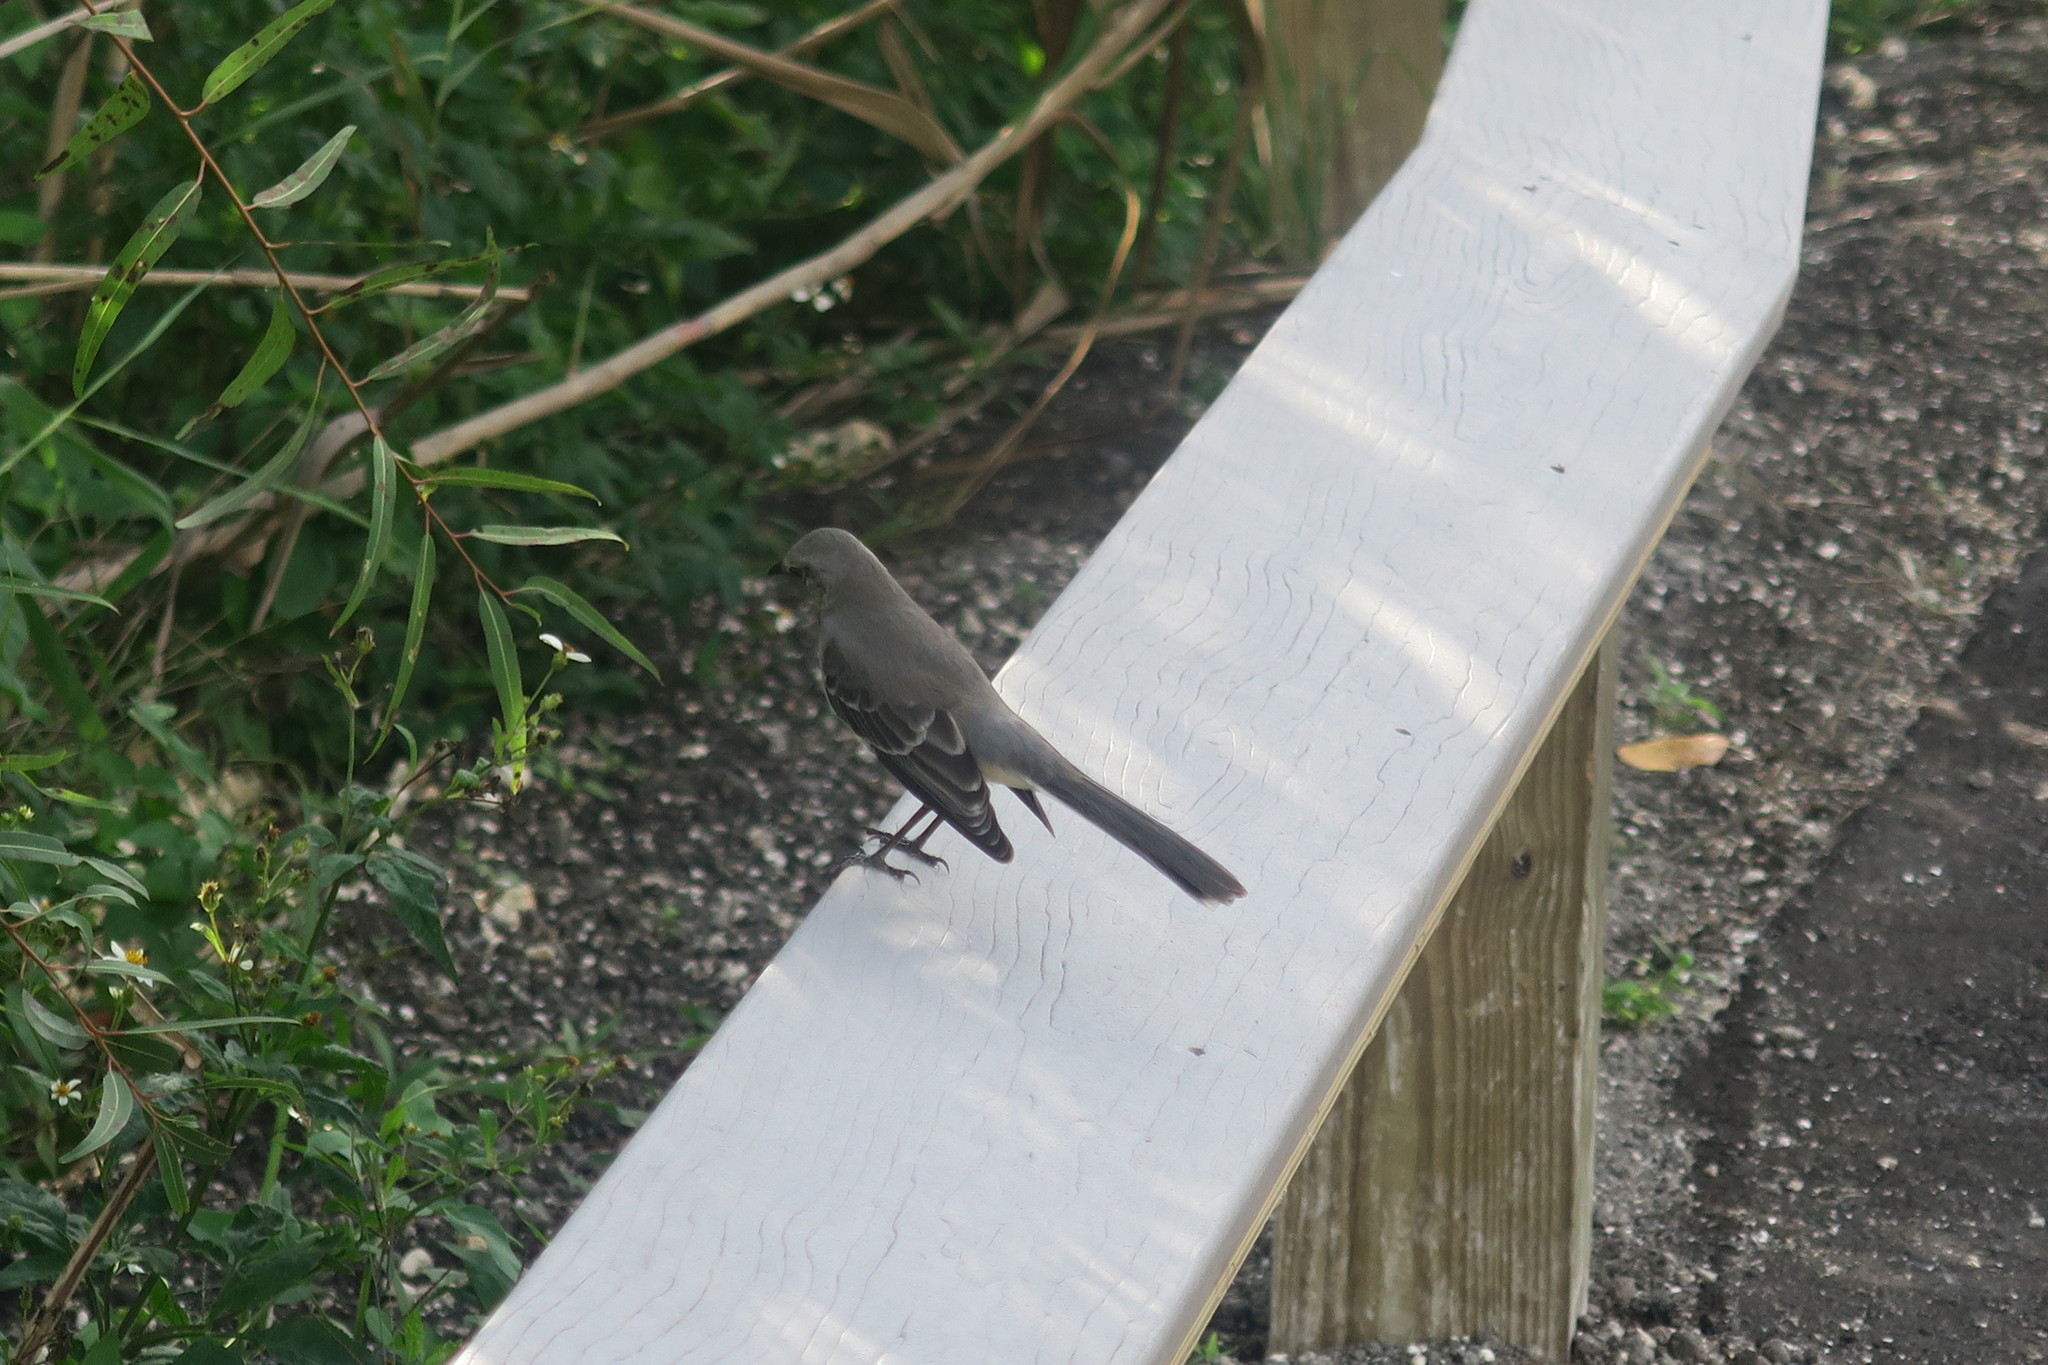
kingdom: Animalia
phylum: Chordata
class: Aves
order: Passeriformes
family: Mimidae
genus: Mimus
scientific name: Mimus polyglottos
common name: Northern mockingbird
